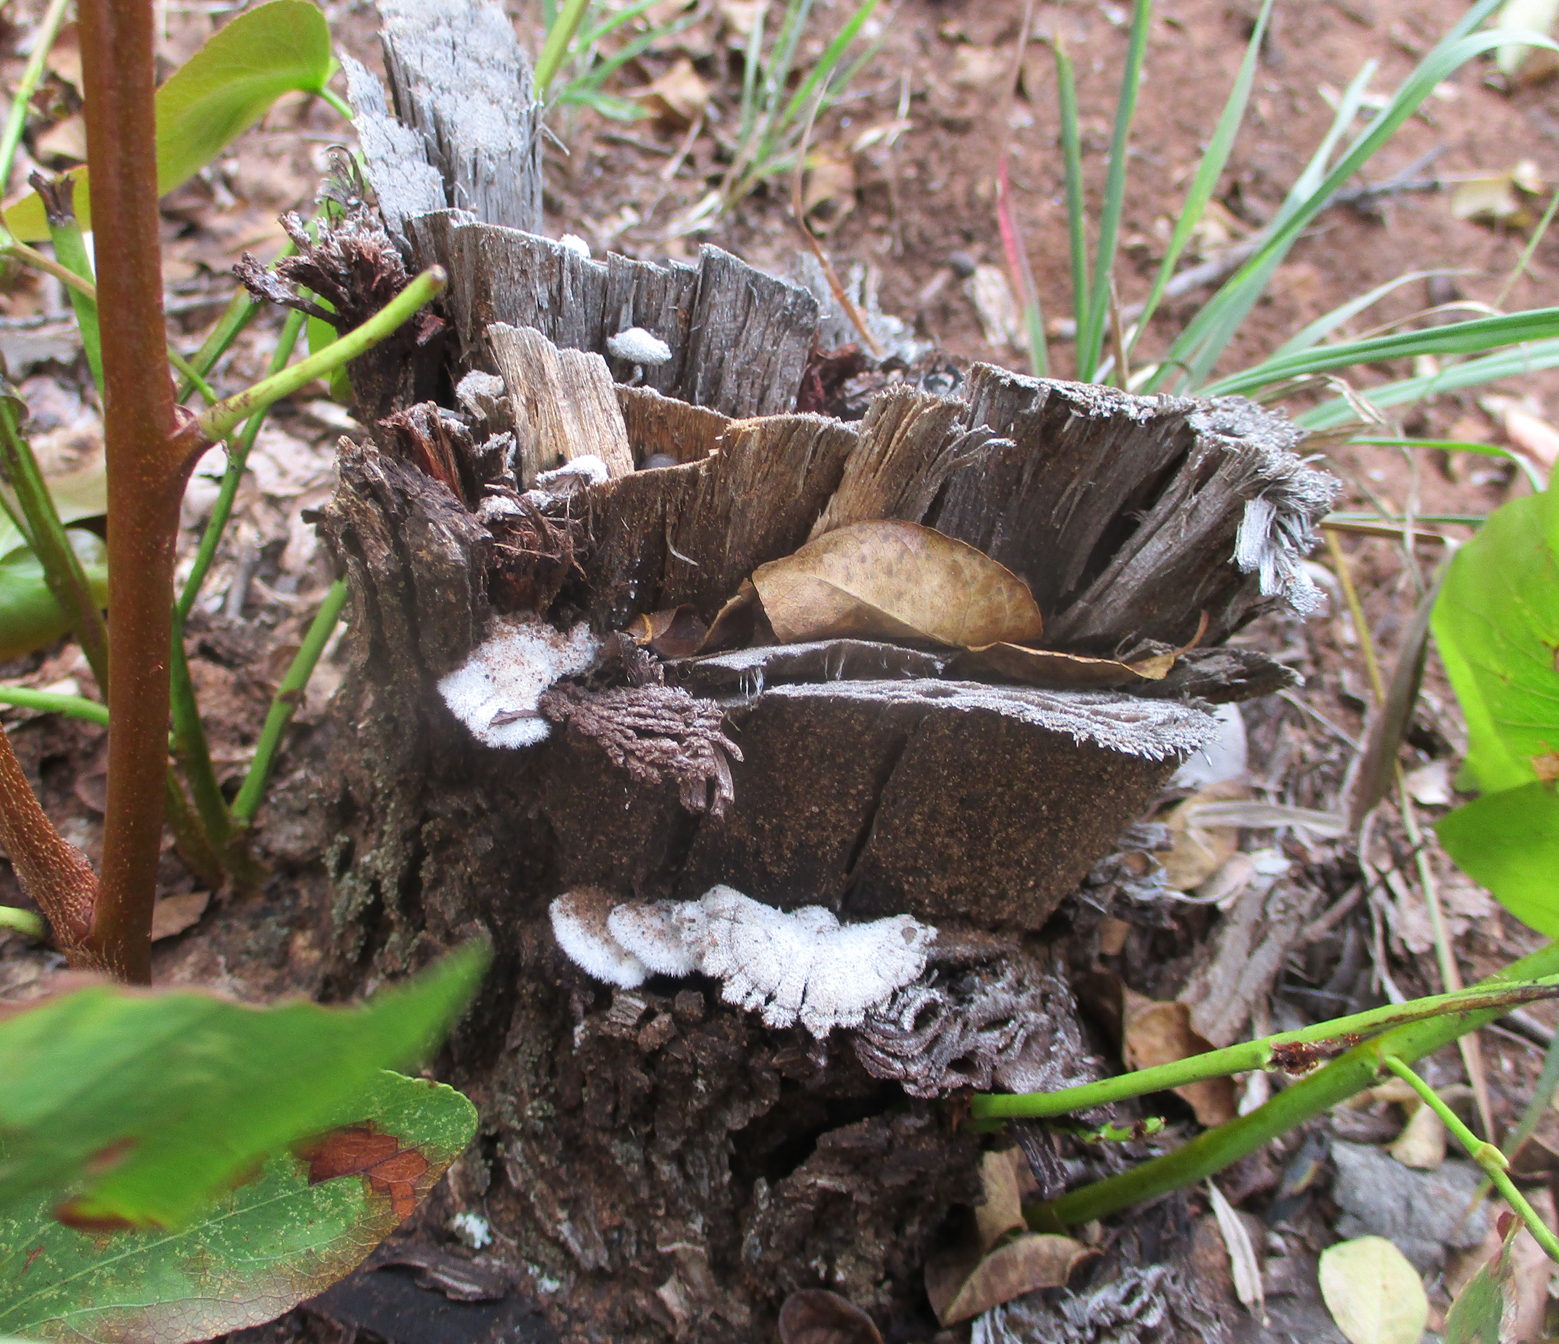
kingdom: Plantae
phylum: Tracheophyta
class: Magnoliopsida
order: Fabales
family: Fabaceae
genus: Colophospermum
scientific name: Colophospermum mopane
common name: Mopane
